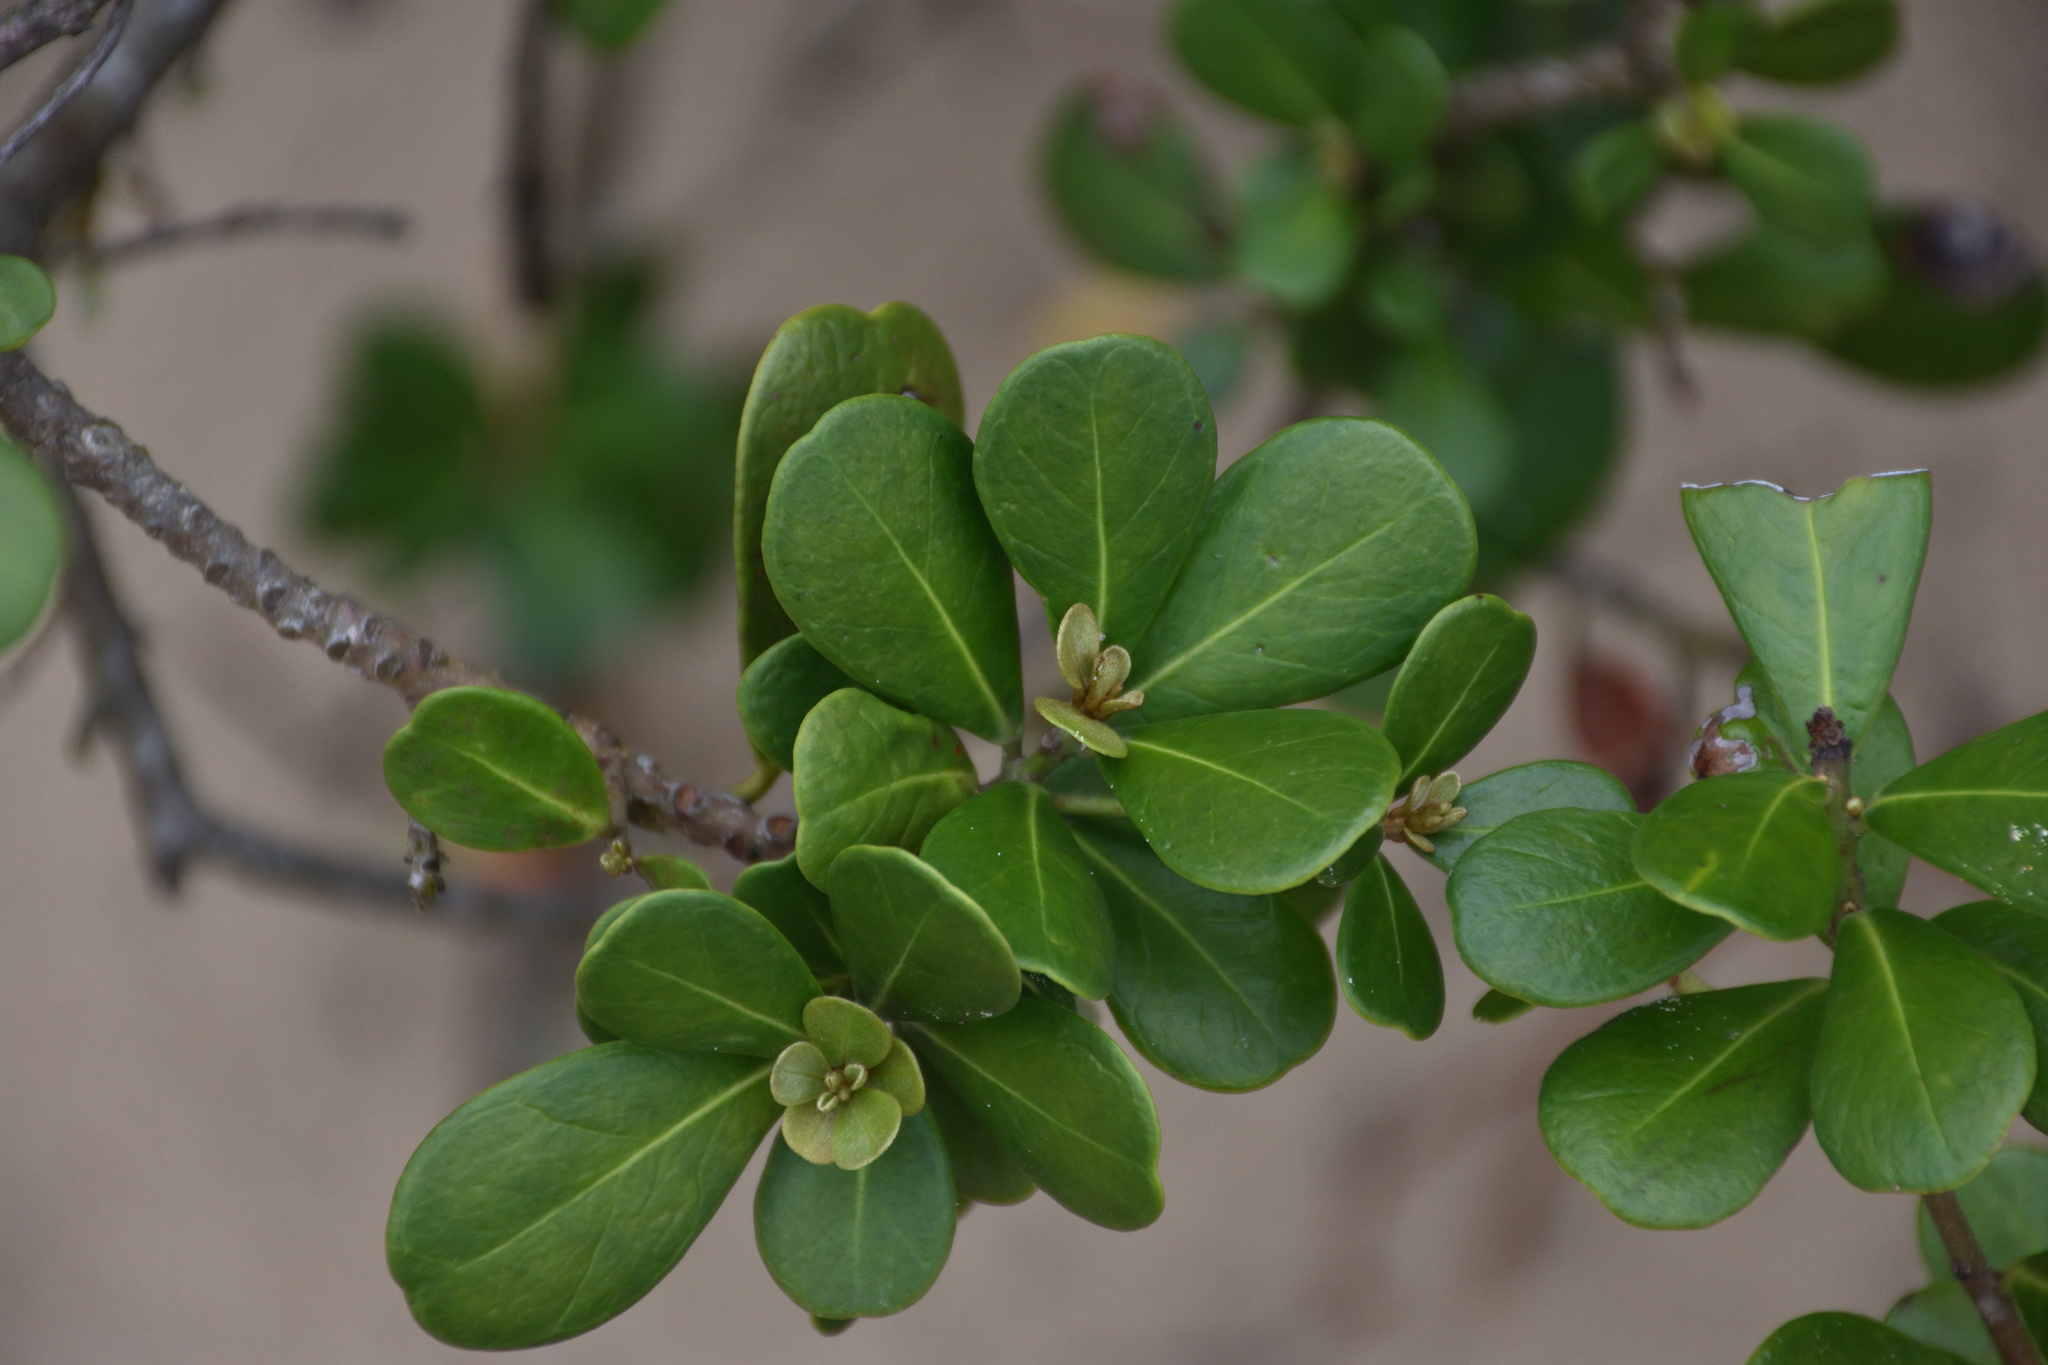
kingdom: Plantae
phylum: Tracheophyta
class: Magnoliopsida
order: Ericales
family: Sapotaceae
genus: Mimusops
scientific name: Mimusops caffra
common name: Coastal red milkwood
